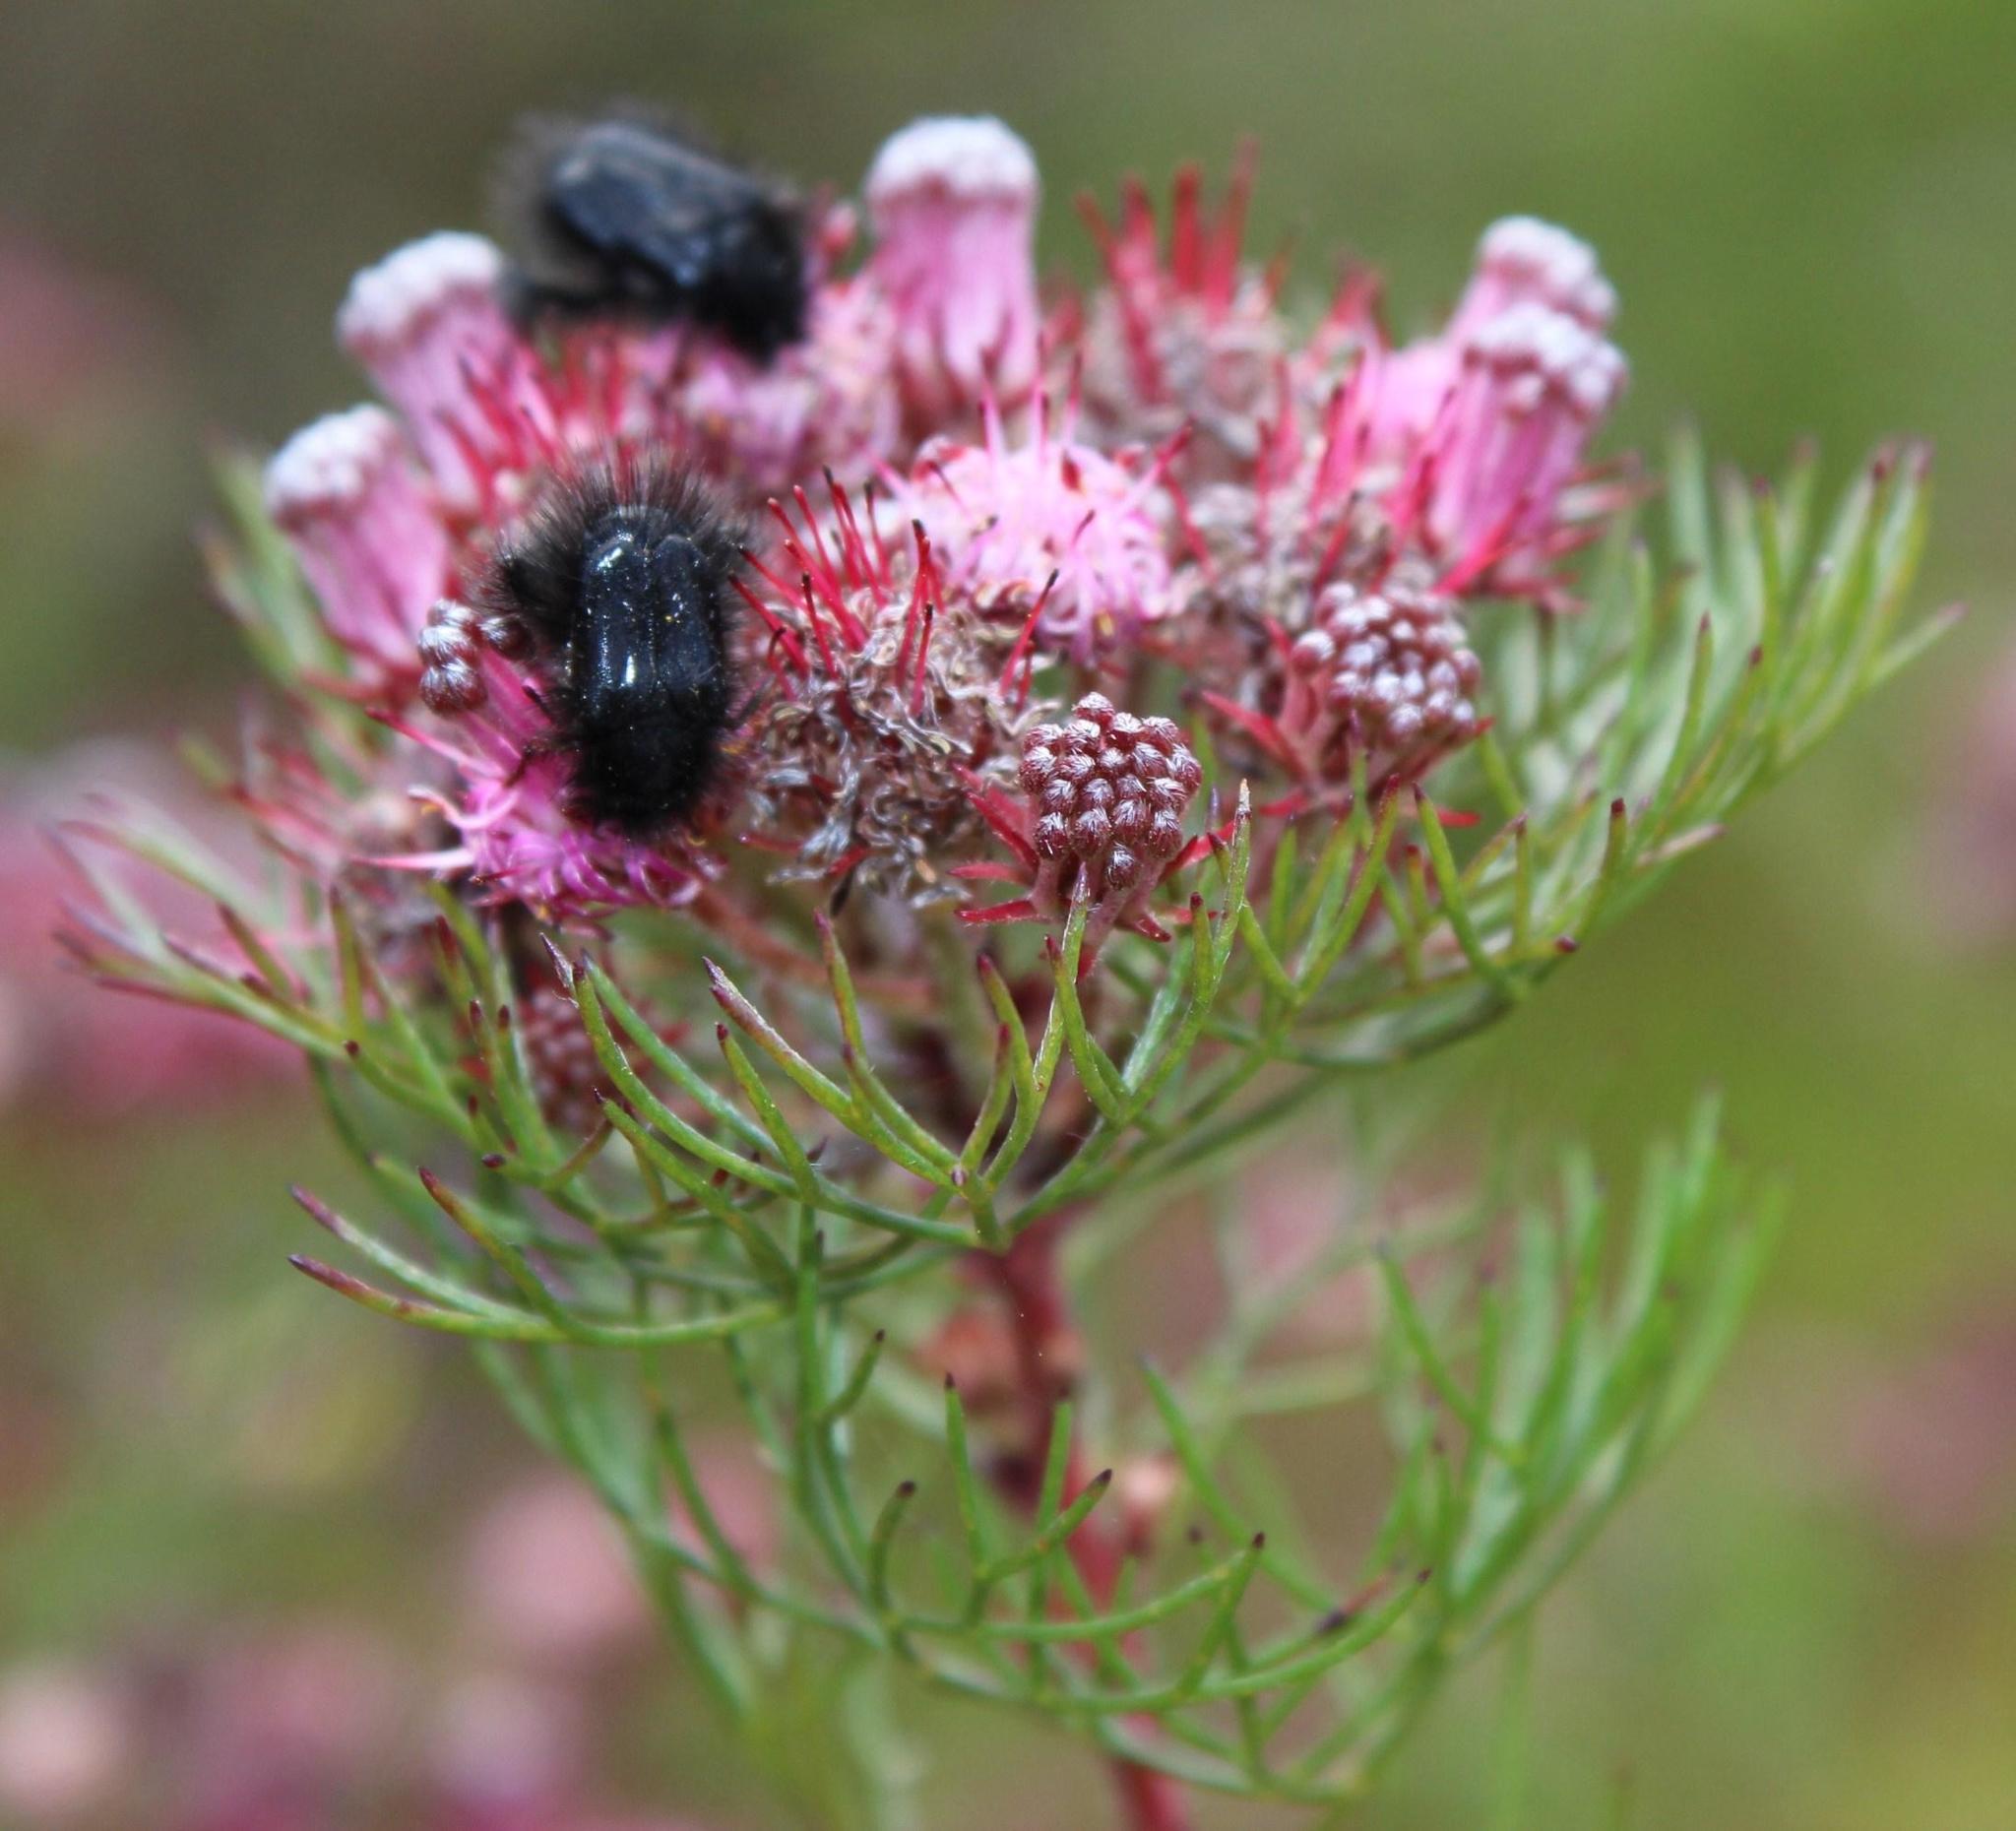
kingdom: Plantae
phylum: Tracheophyta
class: Magnoliopsida
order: Proteales
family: Proteaceae
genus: Serruria
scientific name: Serruria fasciflora
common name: Common pin spiderhead
